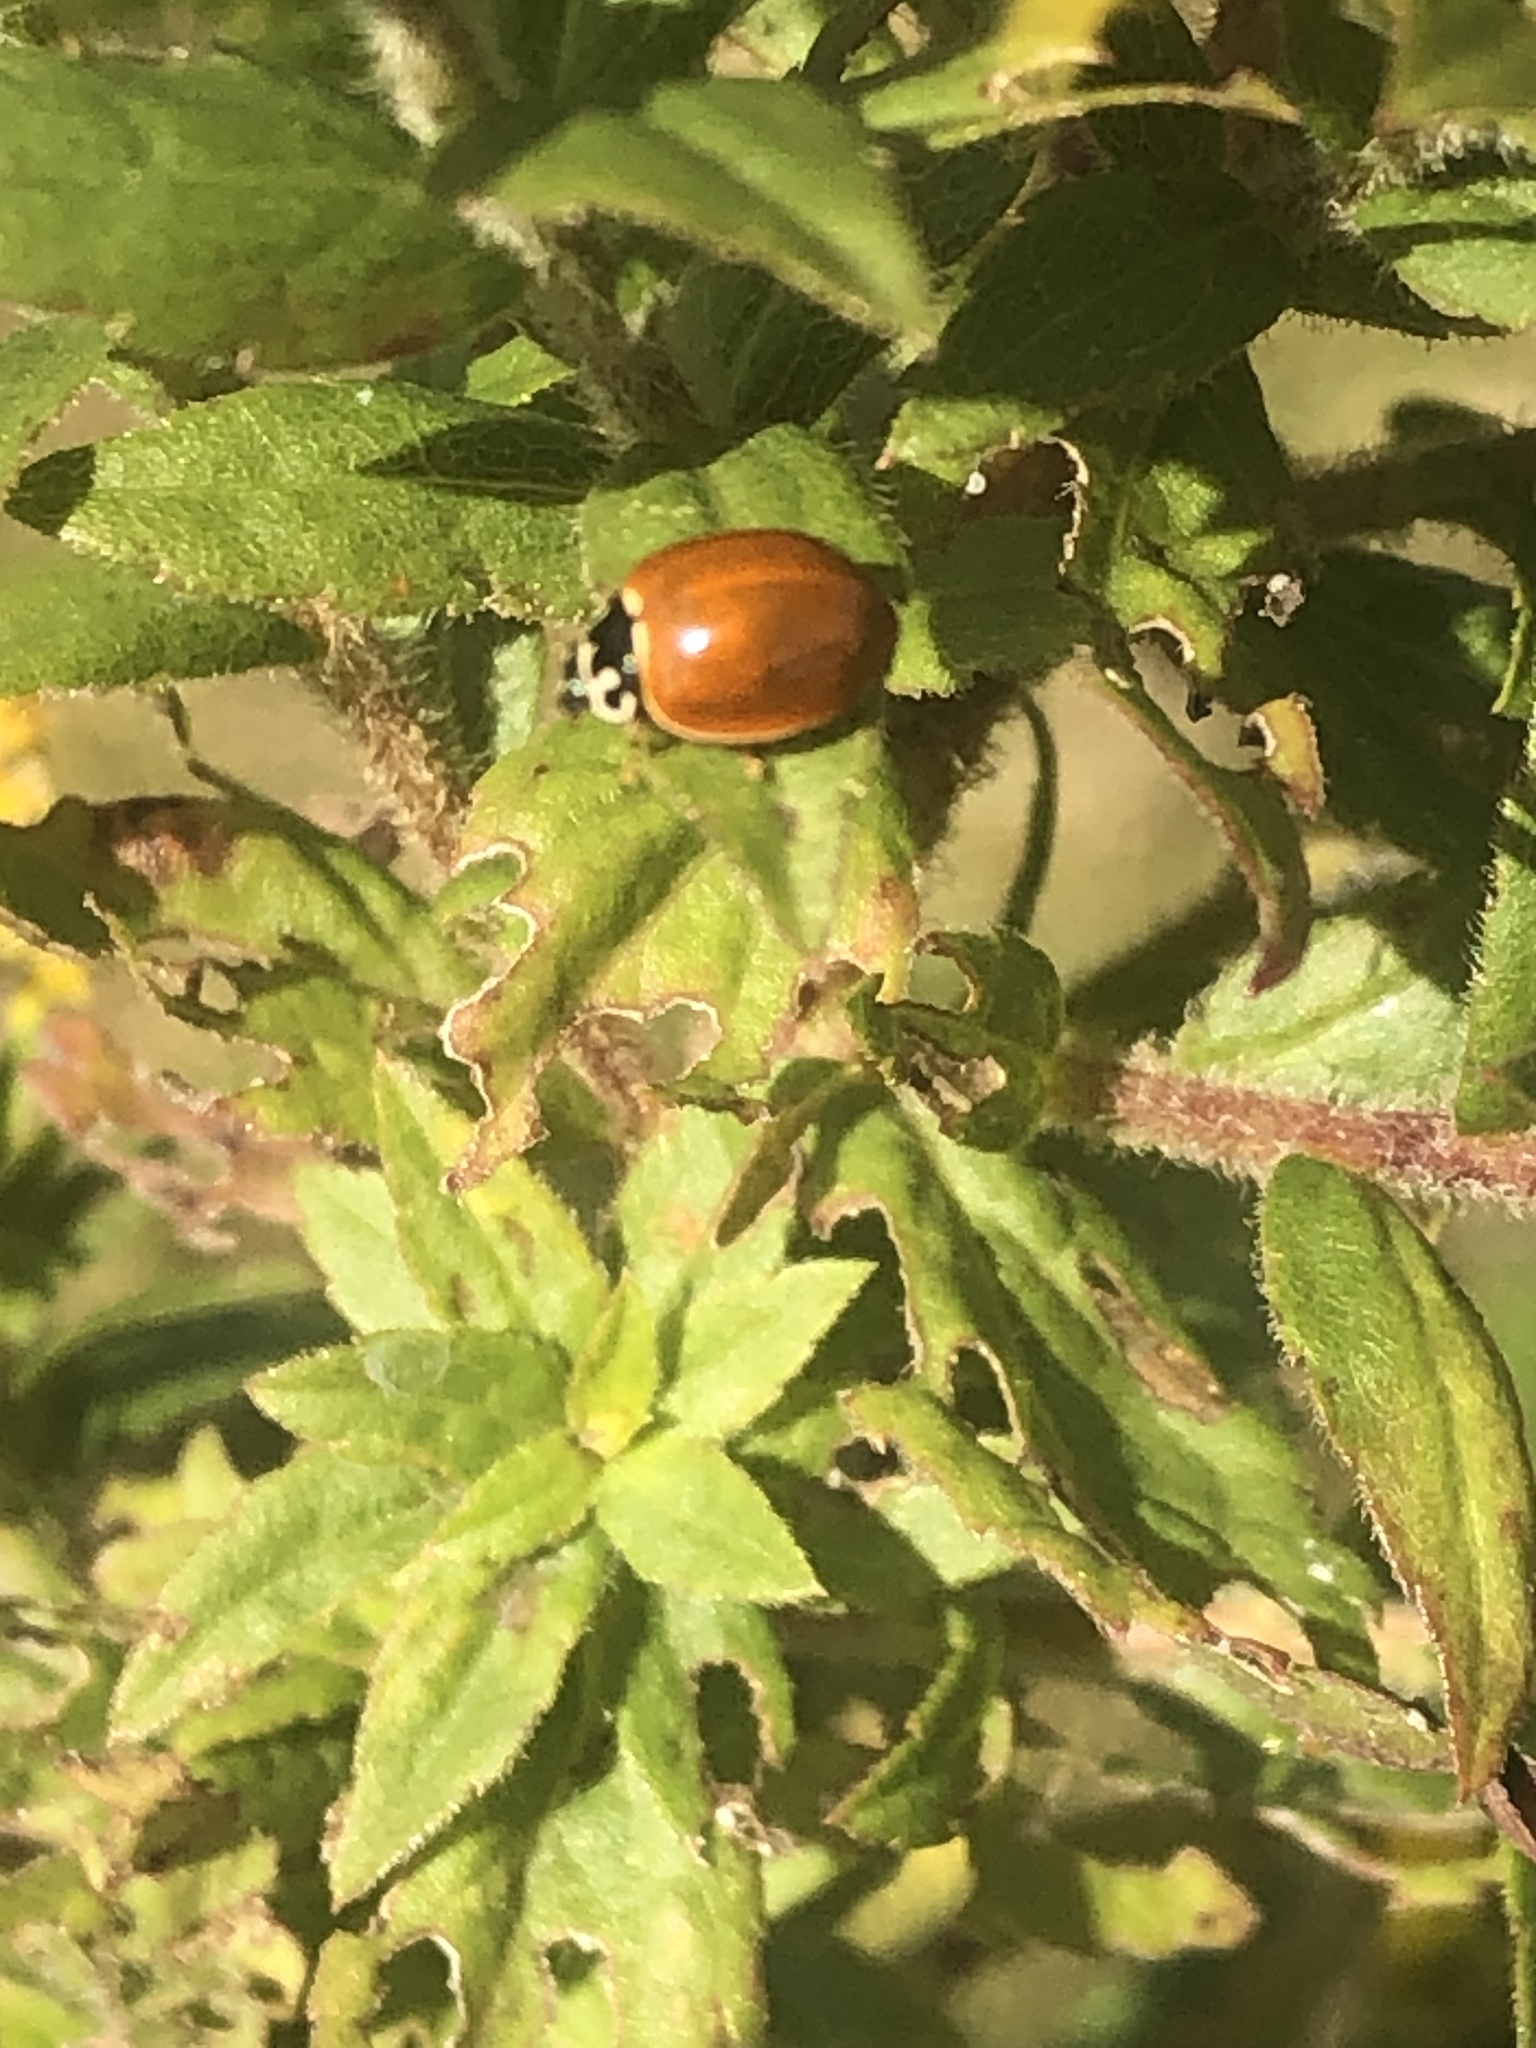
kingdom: Animalia
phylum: Arthropoda
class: Insecta
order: Coleoptera
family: Coccinellidae
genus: Cycloneda
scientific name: Cycloneda munda
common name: Polished lady beetle
